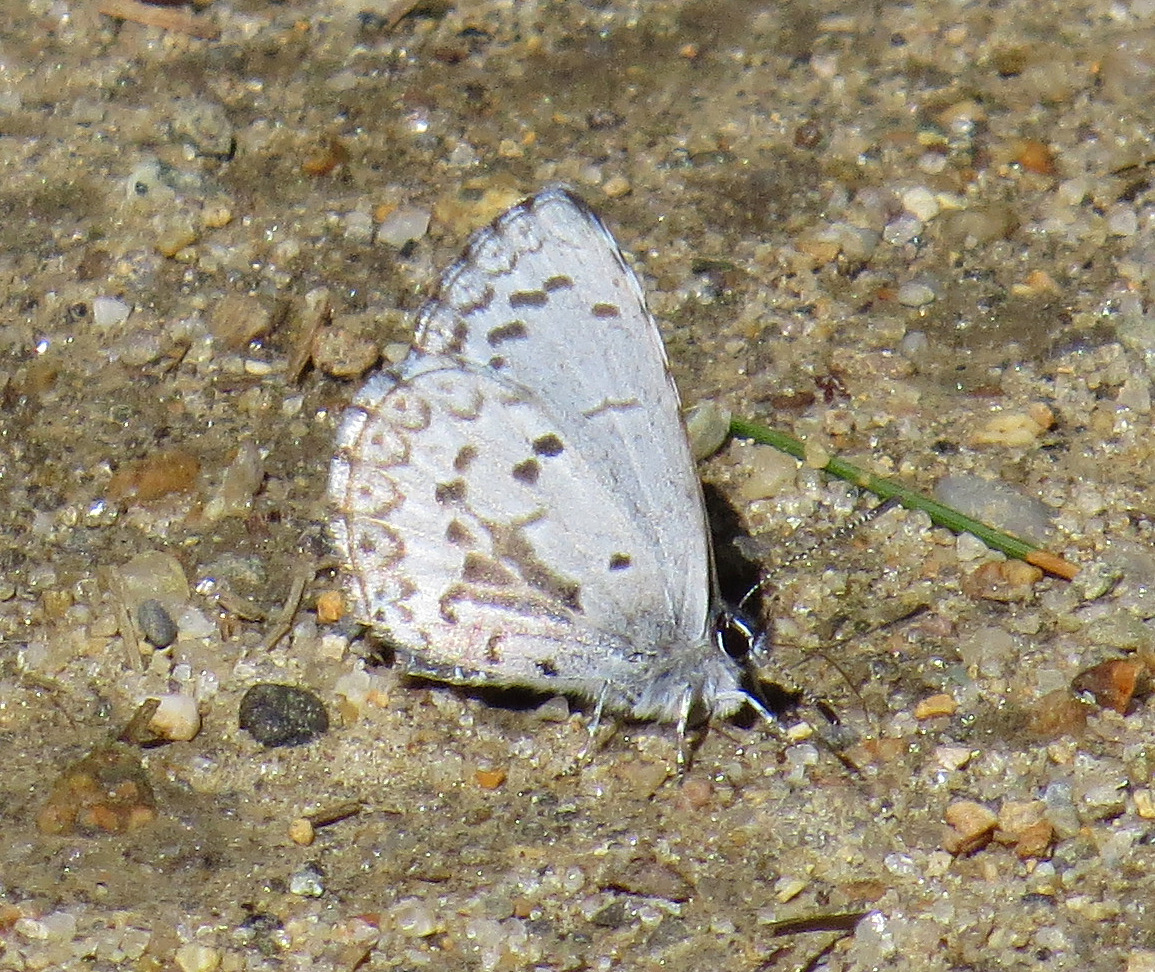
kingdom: Animalia
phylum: Arthropoda
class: Insecta
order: Lepidoptera
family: Lycaenidae
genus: Celastrina
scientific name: Celastrina ladon
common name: Spring azure
